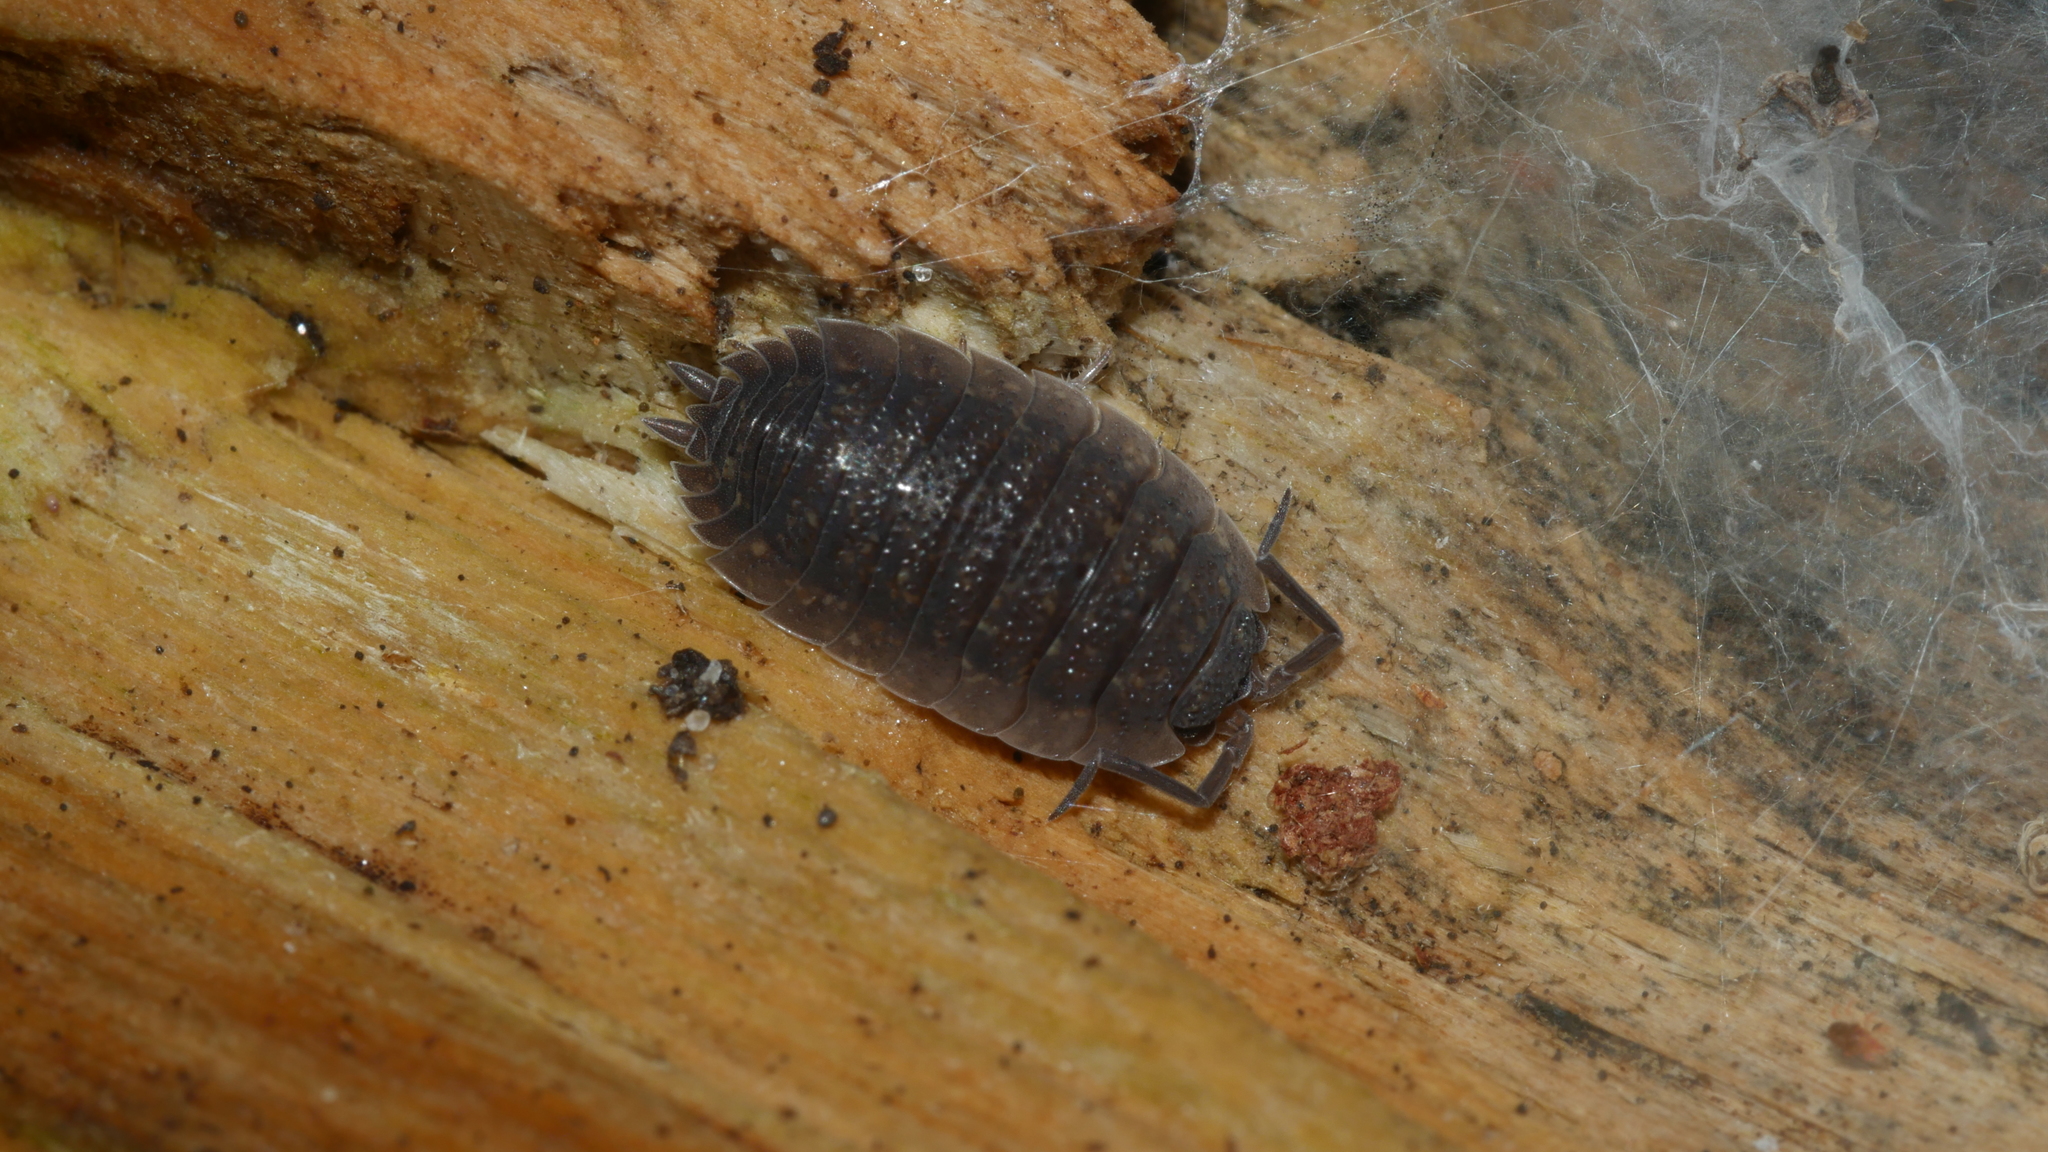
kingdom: Animalia
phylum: Arthropoda
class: Malacostraca
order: Isopoda
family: Porcellionidae
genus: Porcellio
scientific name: Porcellio scaber
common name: Common rough woodlouse
